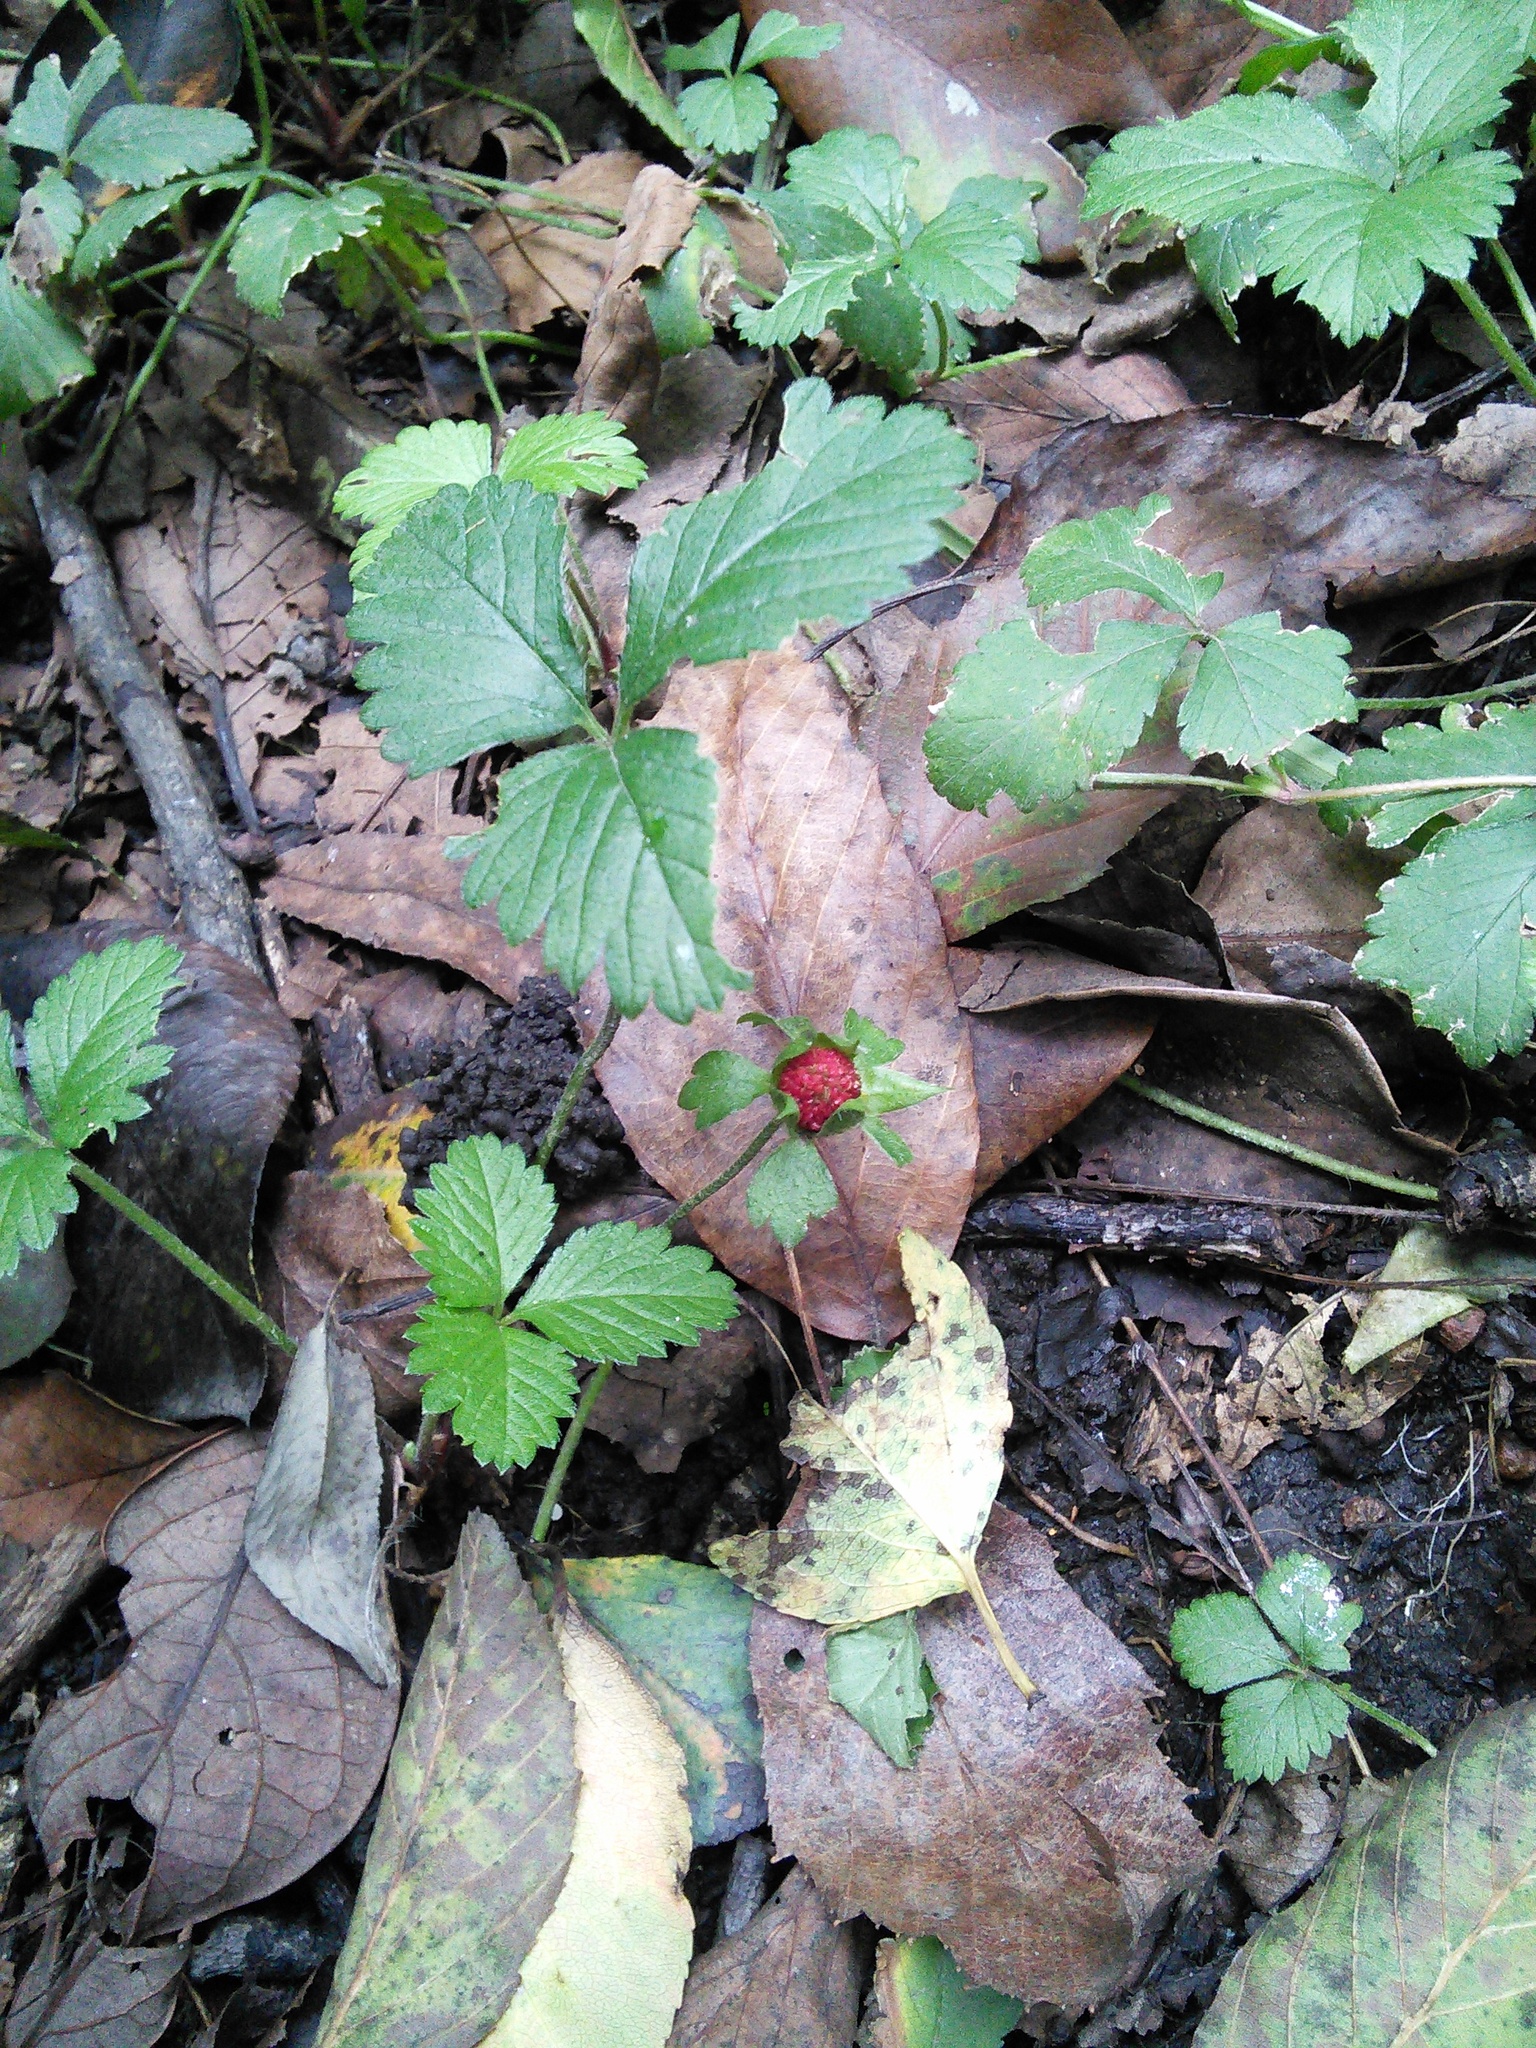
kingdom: Plantae
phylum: Tracheophyta
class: Magnoliopsida
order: Rosales
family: Rosaceae
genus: Potentilla
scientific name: Potentilla indica
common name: Yellow-flowered strawberry
